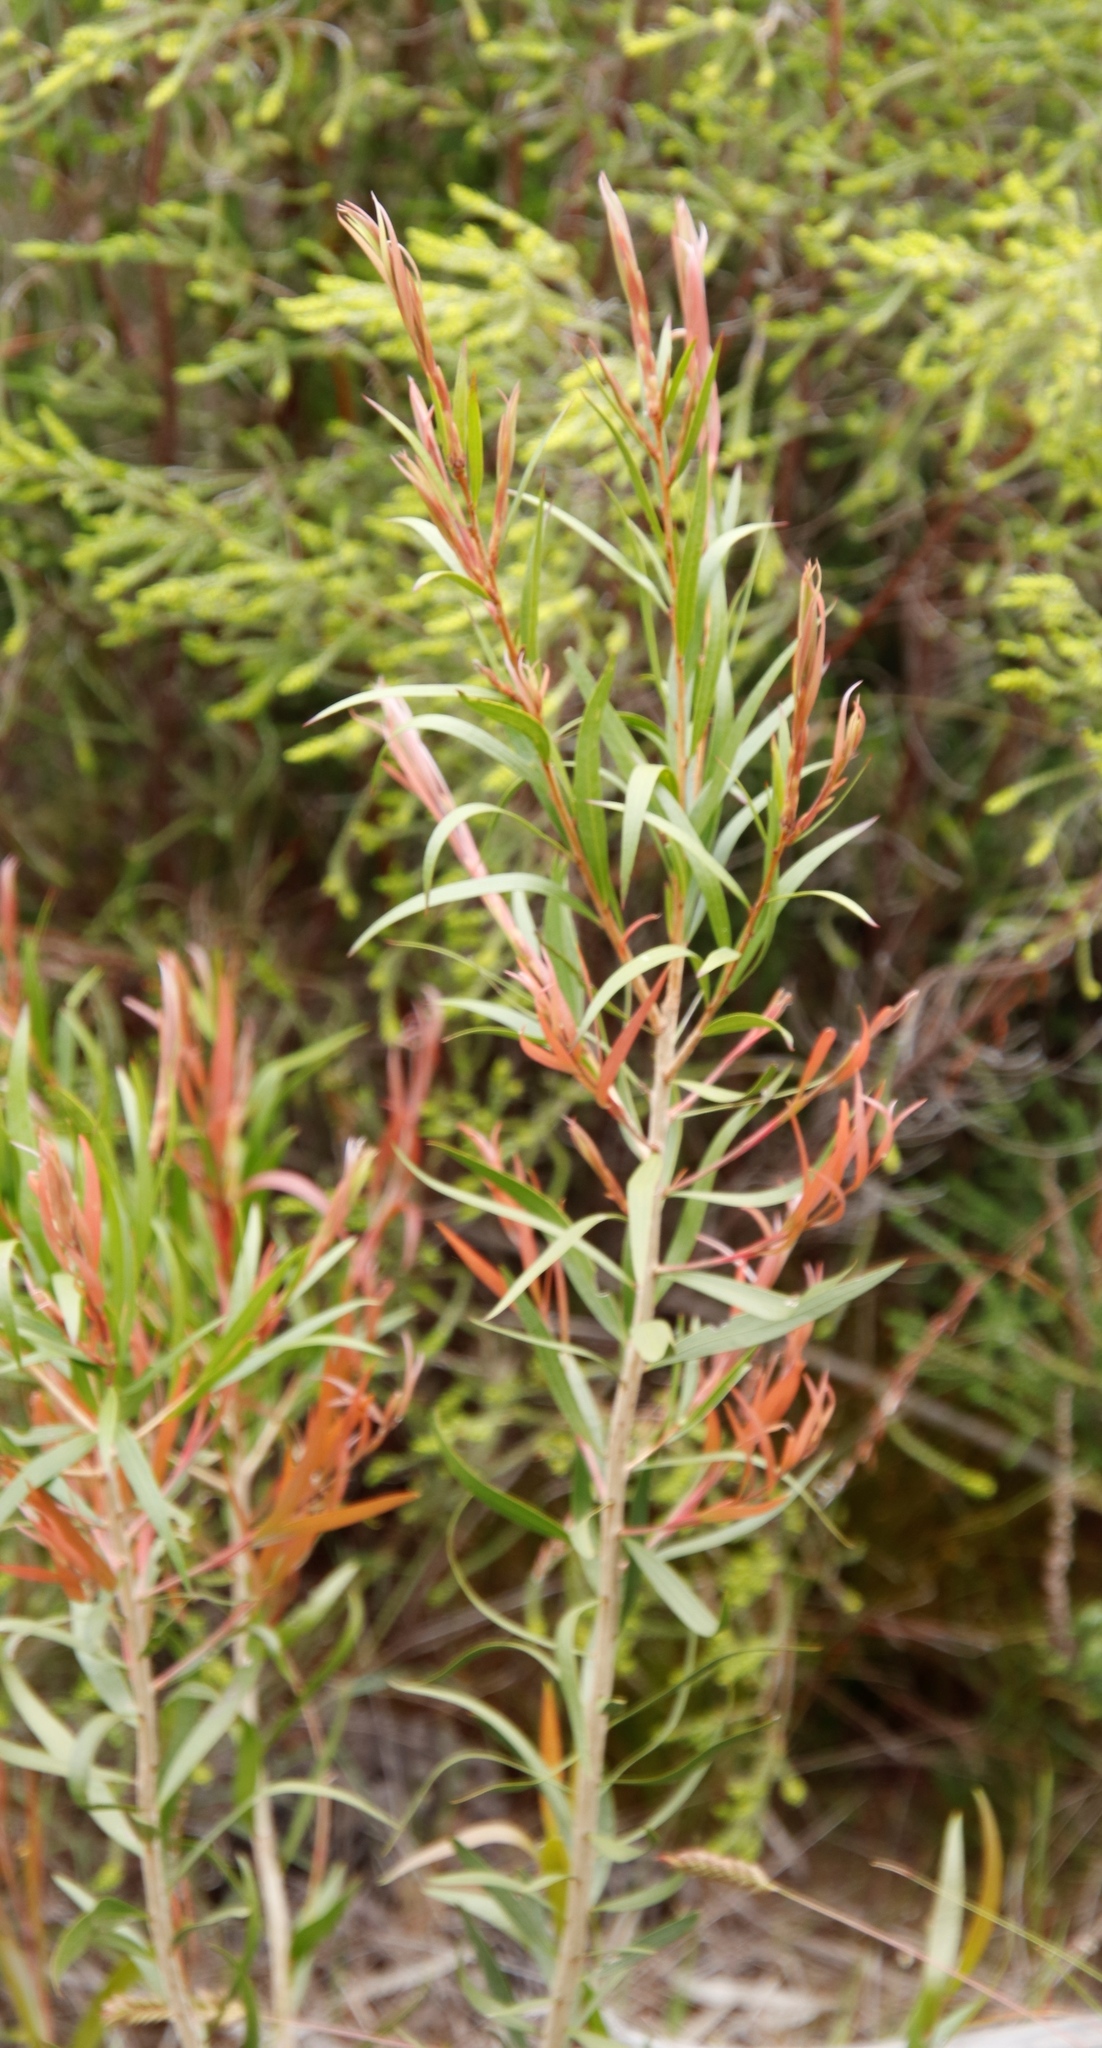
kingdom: Plantae
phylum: Tracheophyta
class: Magnoliopsida
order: Myrtales
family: Myrtaceae
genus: Callistemon
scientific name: Callistemon salignus
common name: White bottlebrush
